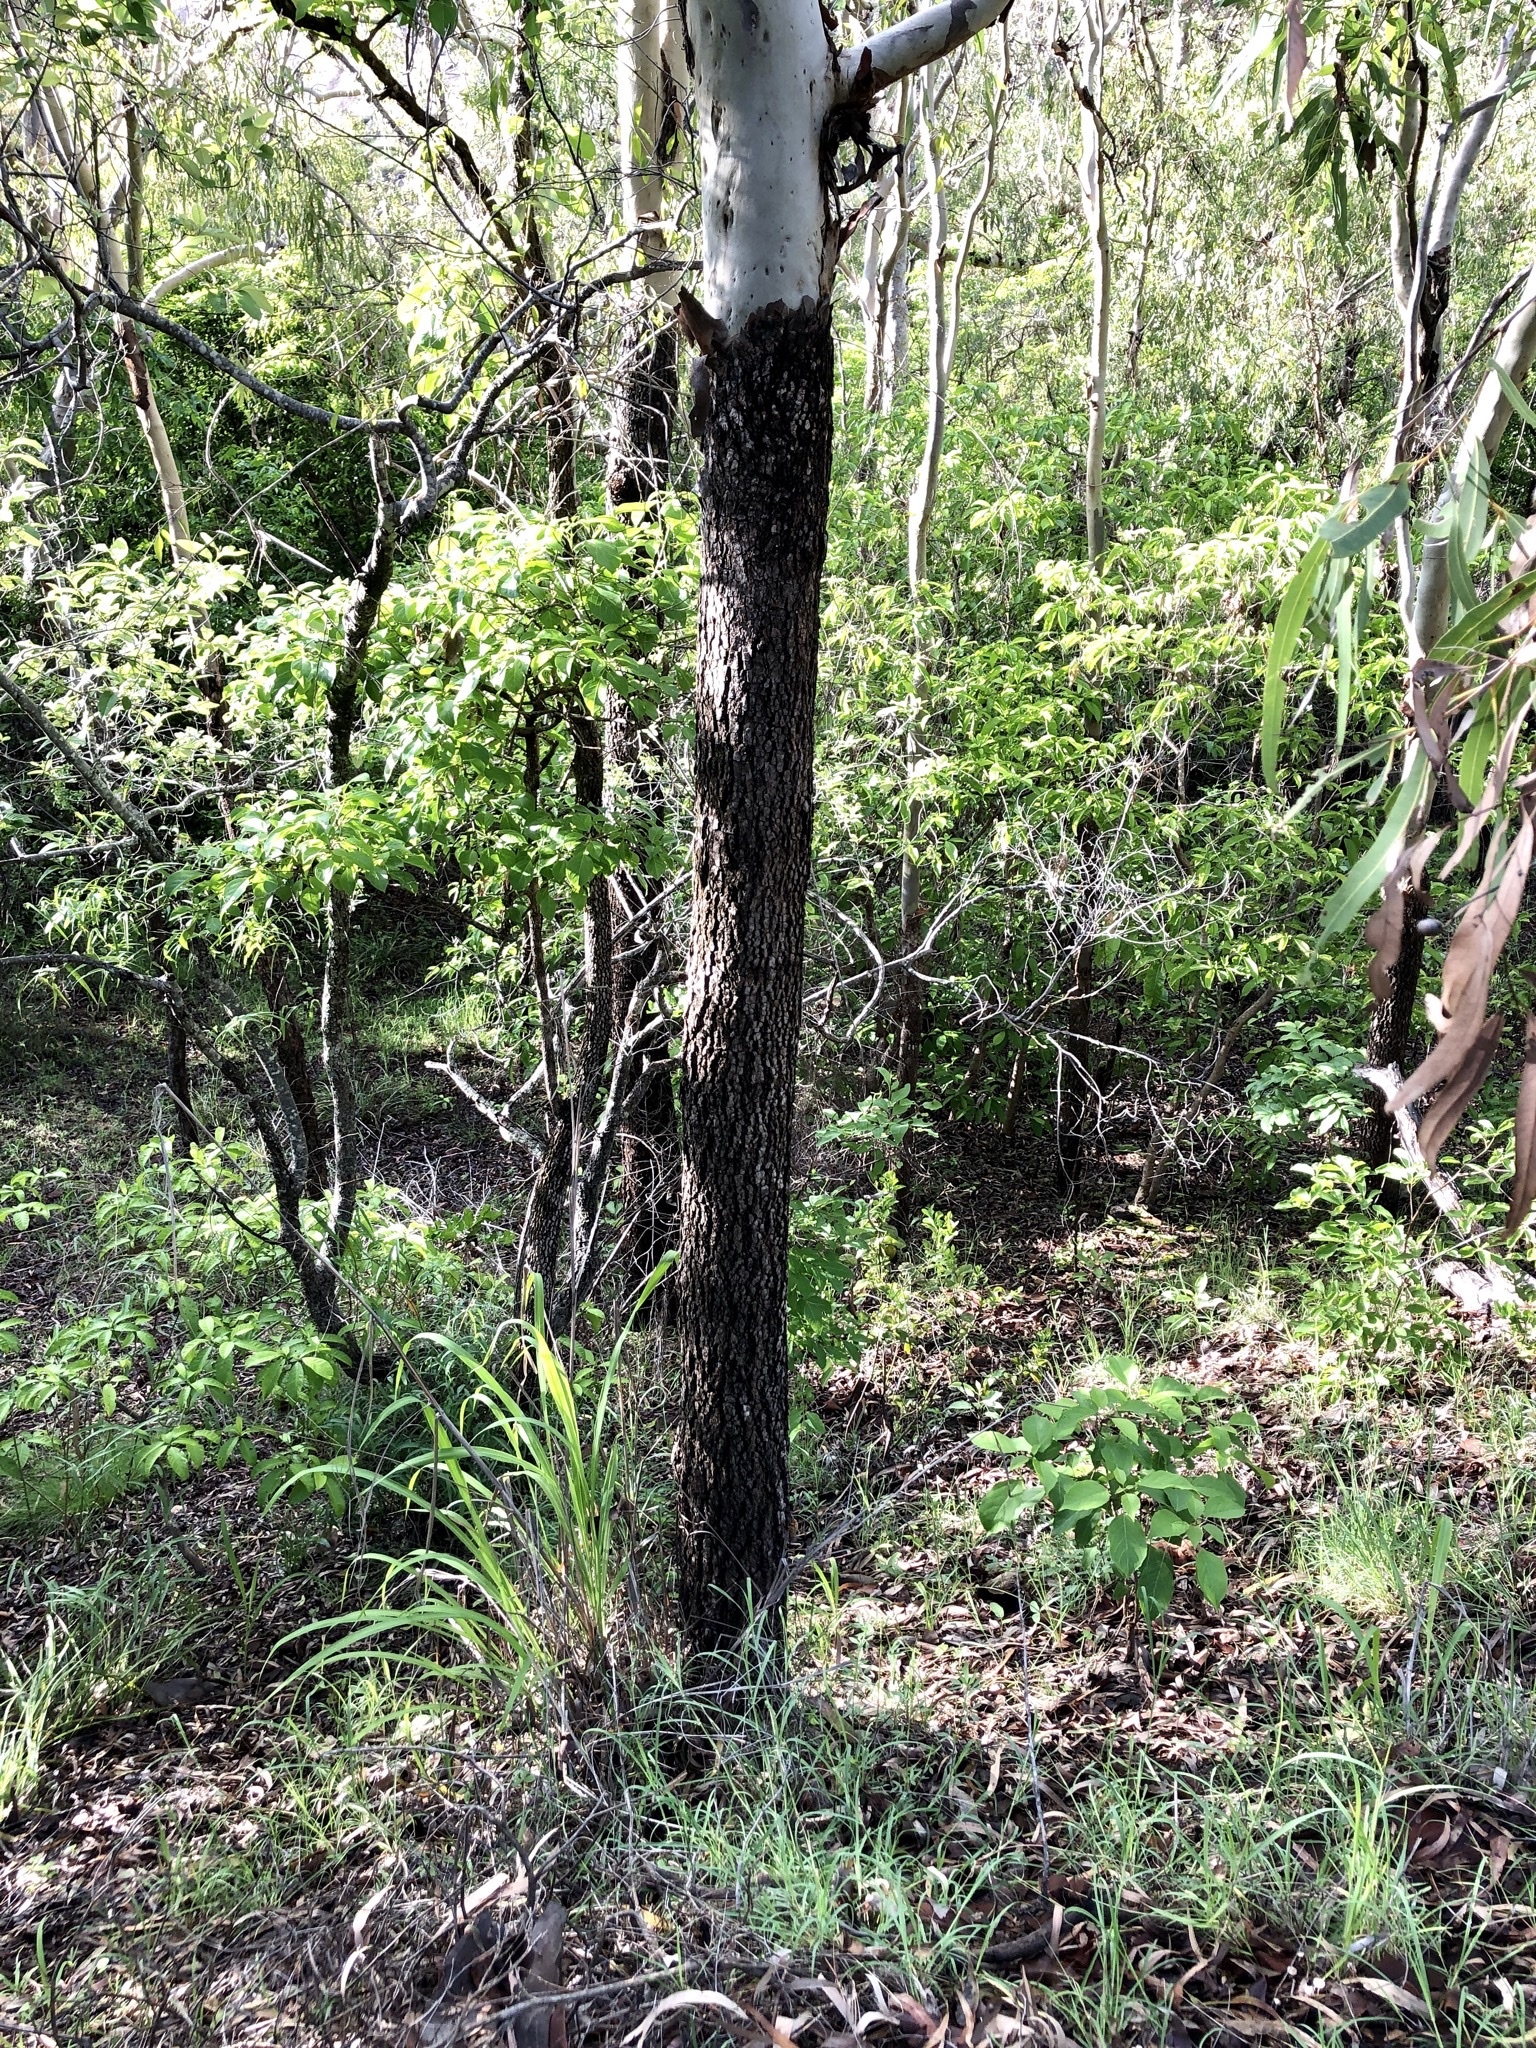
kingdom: Plantae
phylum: Tracheophyta
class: Magnoliopsida
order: Myrtales
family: Myrtaceae
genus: Corymbia
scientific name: Corymbia tessellaris
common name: Carbeen
